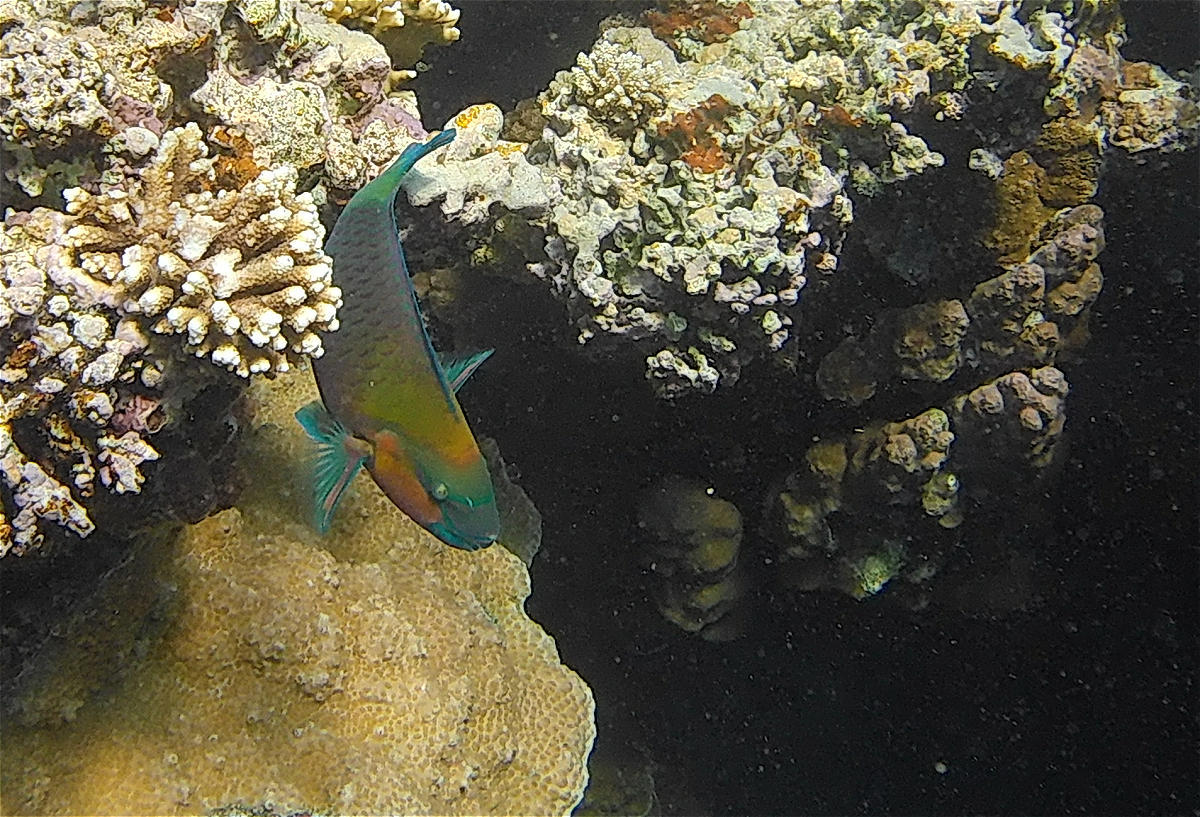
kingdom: Animalia
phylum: Chordata
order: Perciformes
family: Scaridae
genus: Chlorurus
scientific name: Chlorurus sordidus
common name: Bullethead parrotfish
